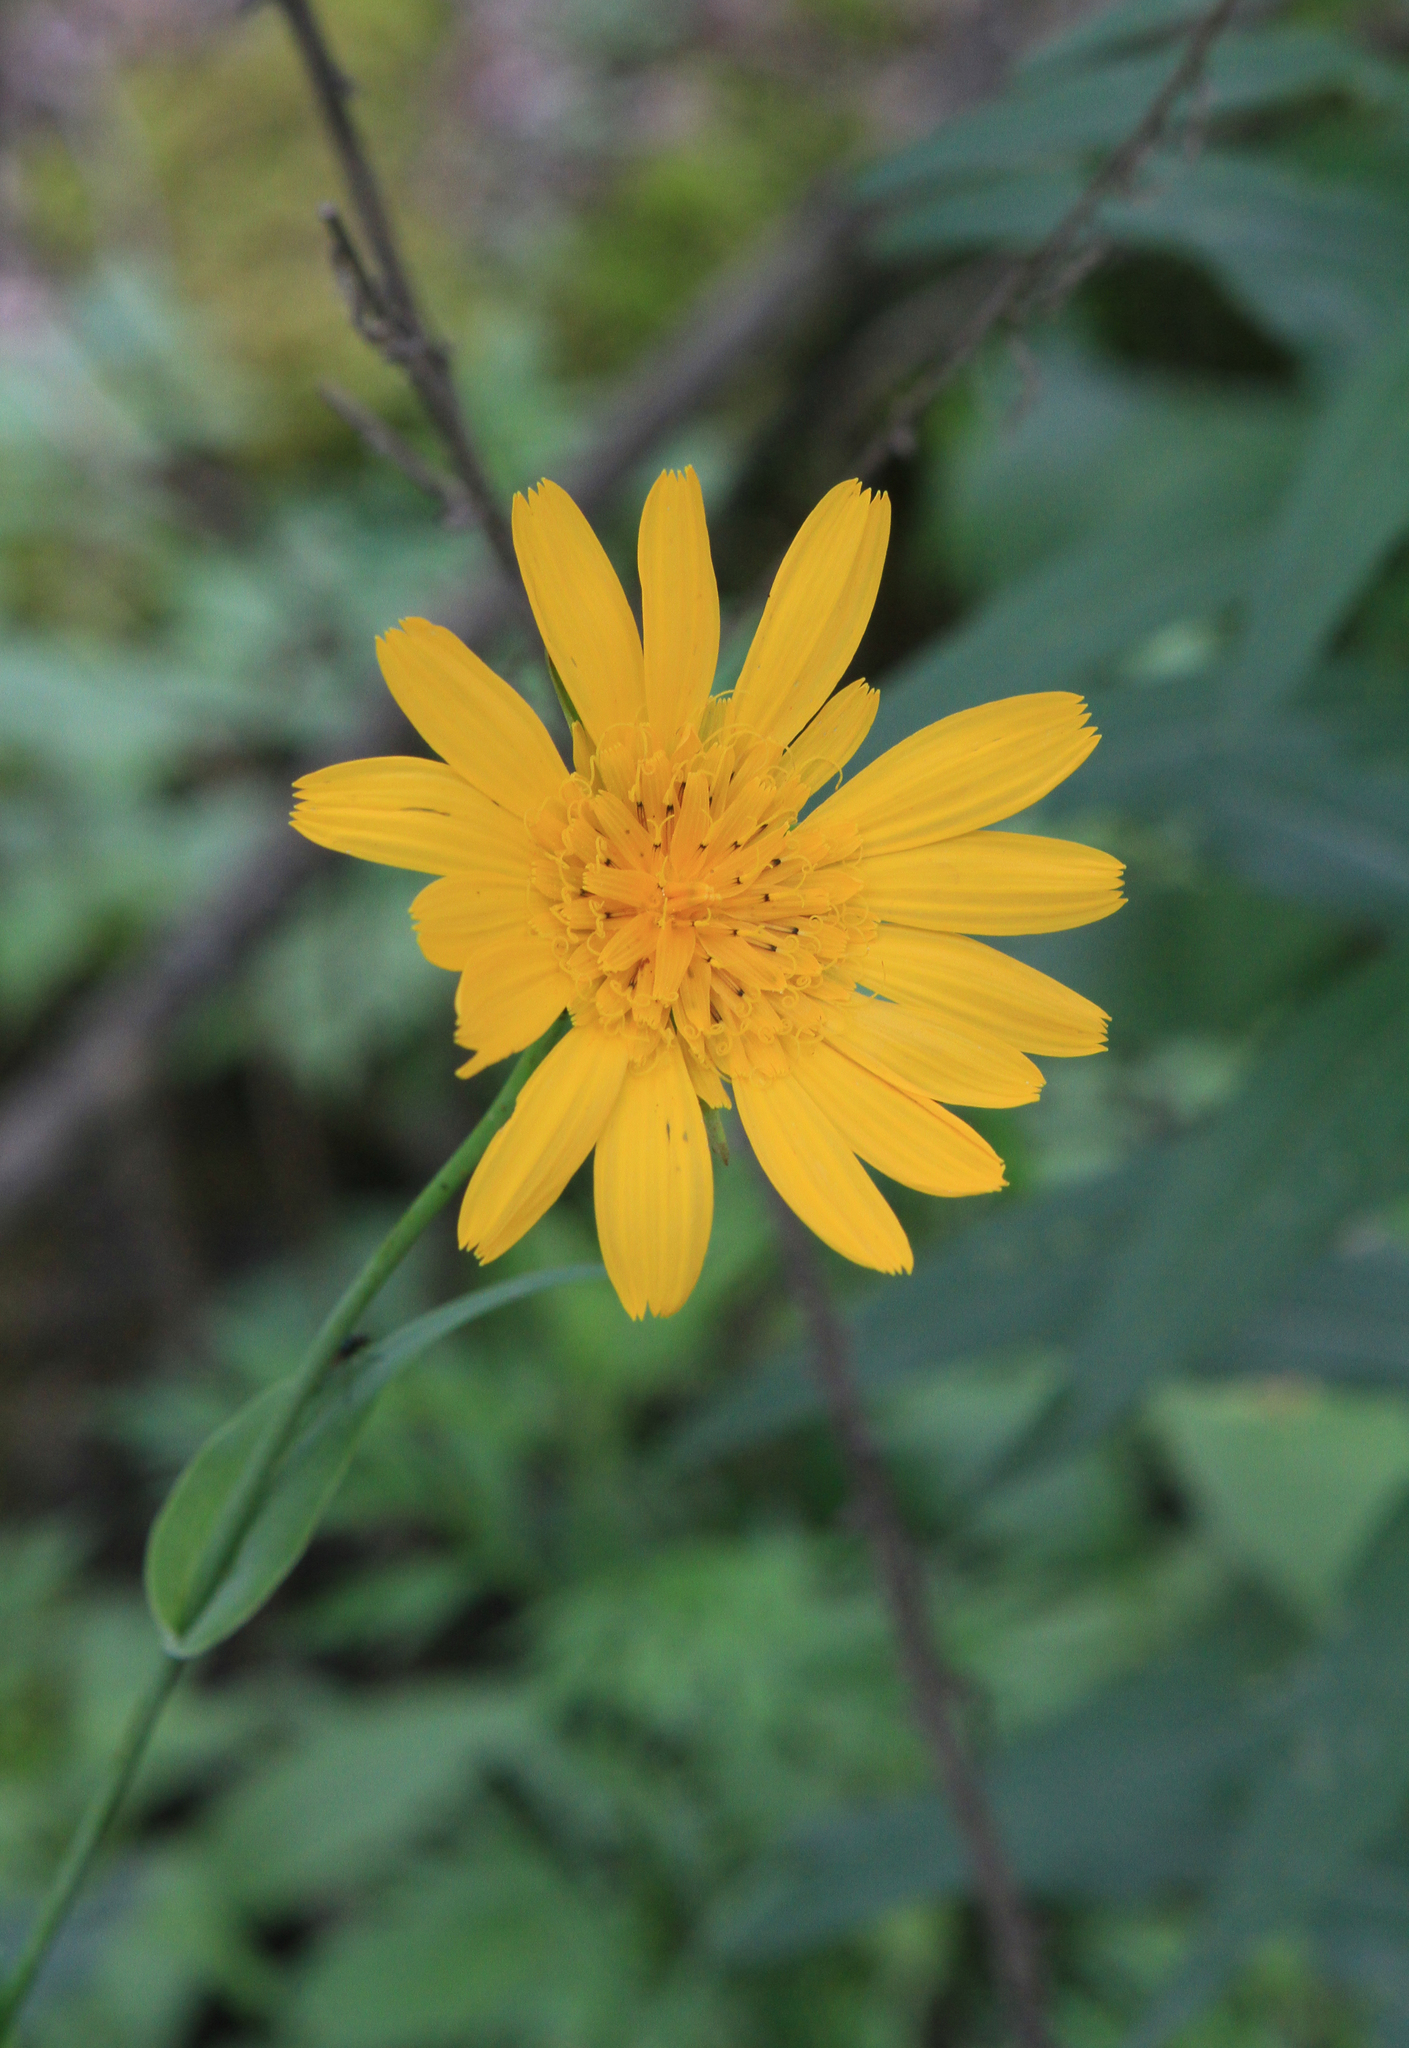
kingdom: Plantae
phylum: Tracheophyta
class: Magnoliopsida
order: Asterales
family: Asteraceae
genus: Tragopogon
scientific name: Tragopogon orientalis
